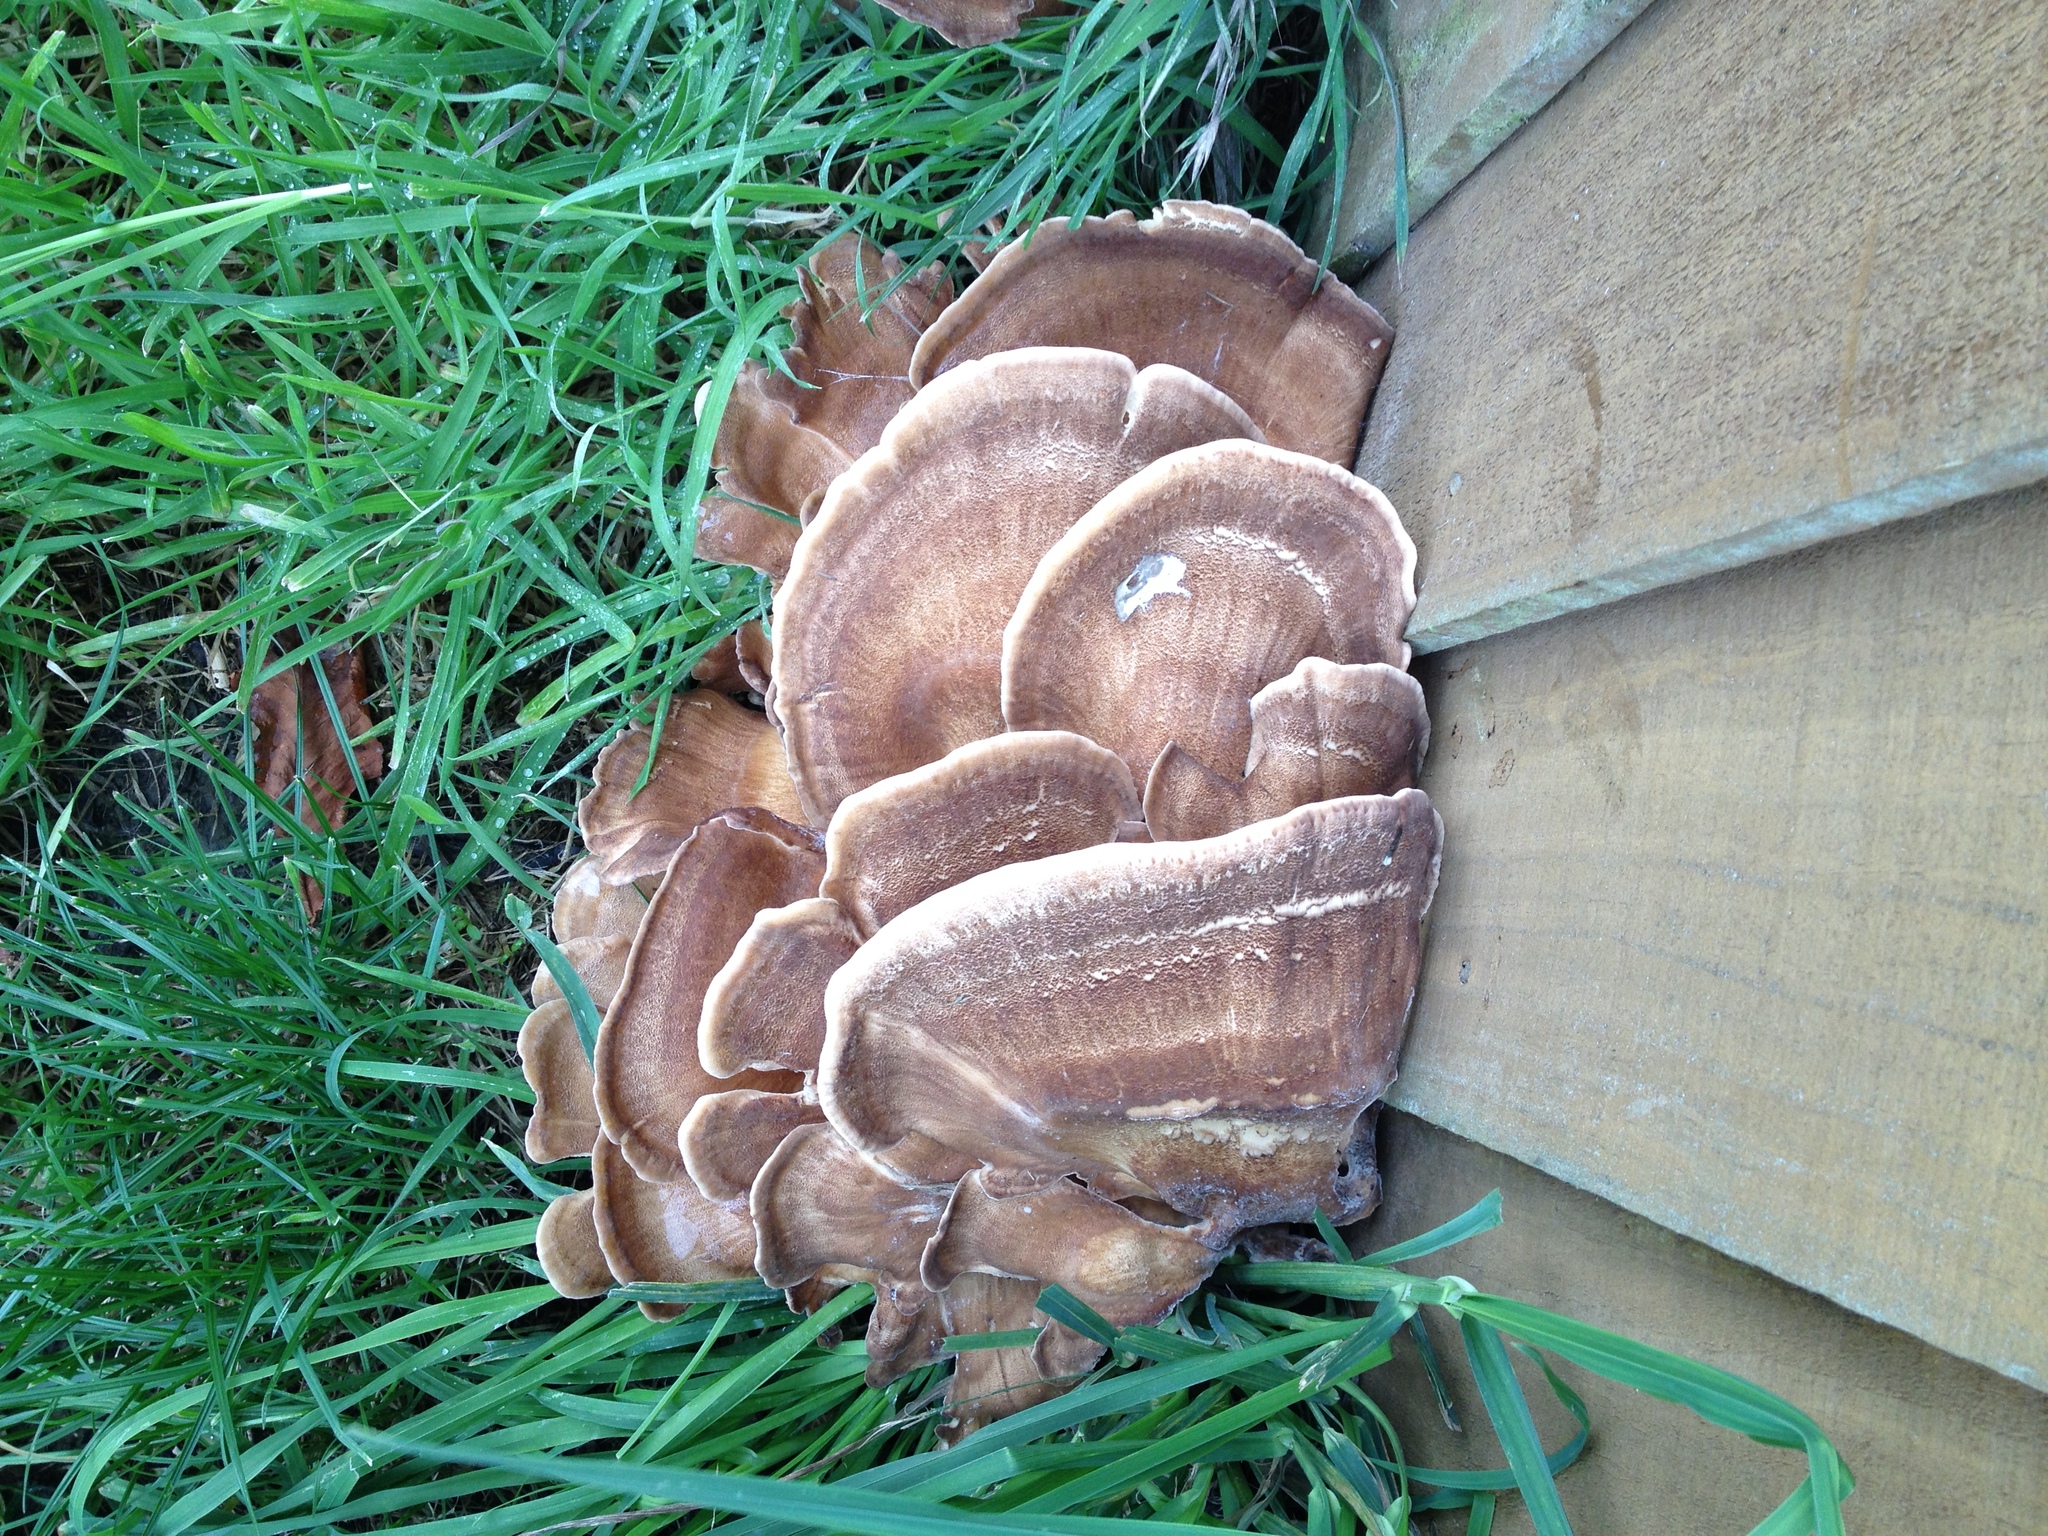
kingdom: Fungi
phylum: Basidiomycota
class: Agaricomycetes
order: Polyporales
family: Meripilaceae
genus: Meripilus
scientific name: Meripilus giganteus
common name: Giant polypore
